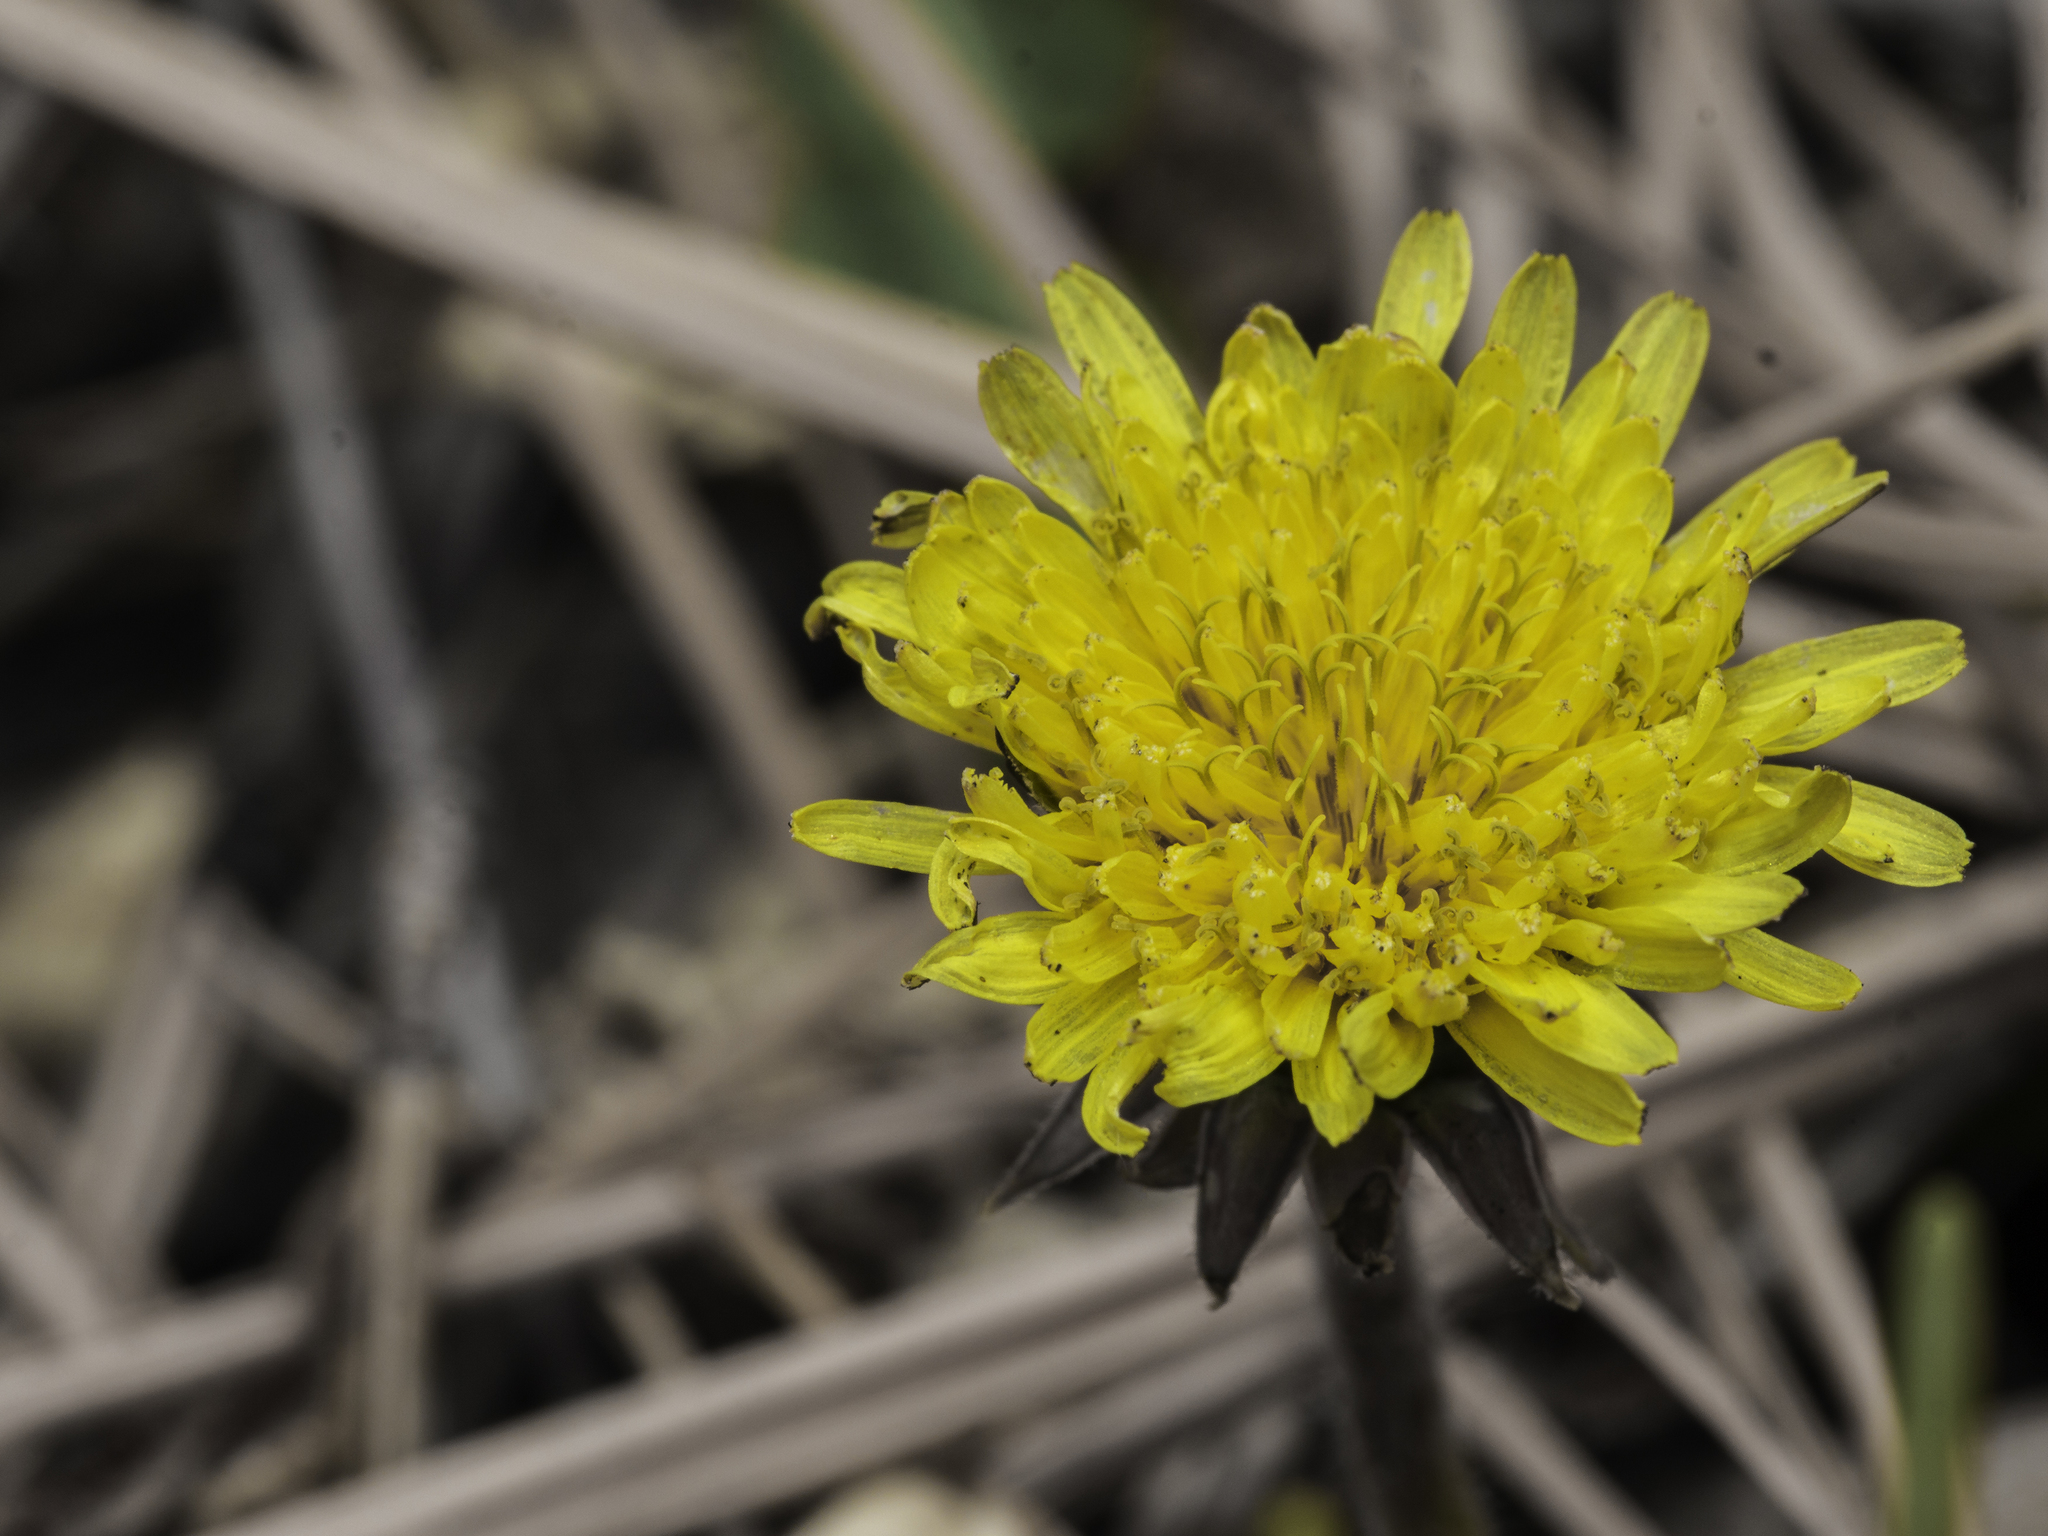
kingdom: Plantae
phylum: Tracheophyta
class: Magnoliopsida
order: Asterales
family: Asteraceae
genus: Taraxacum
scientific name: Taraxacum officinale
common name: Common dandelion
